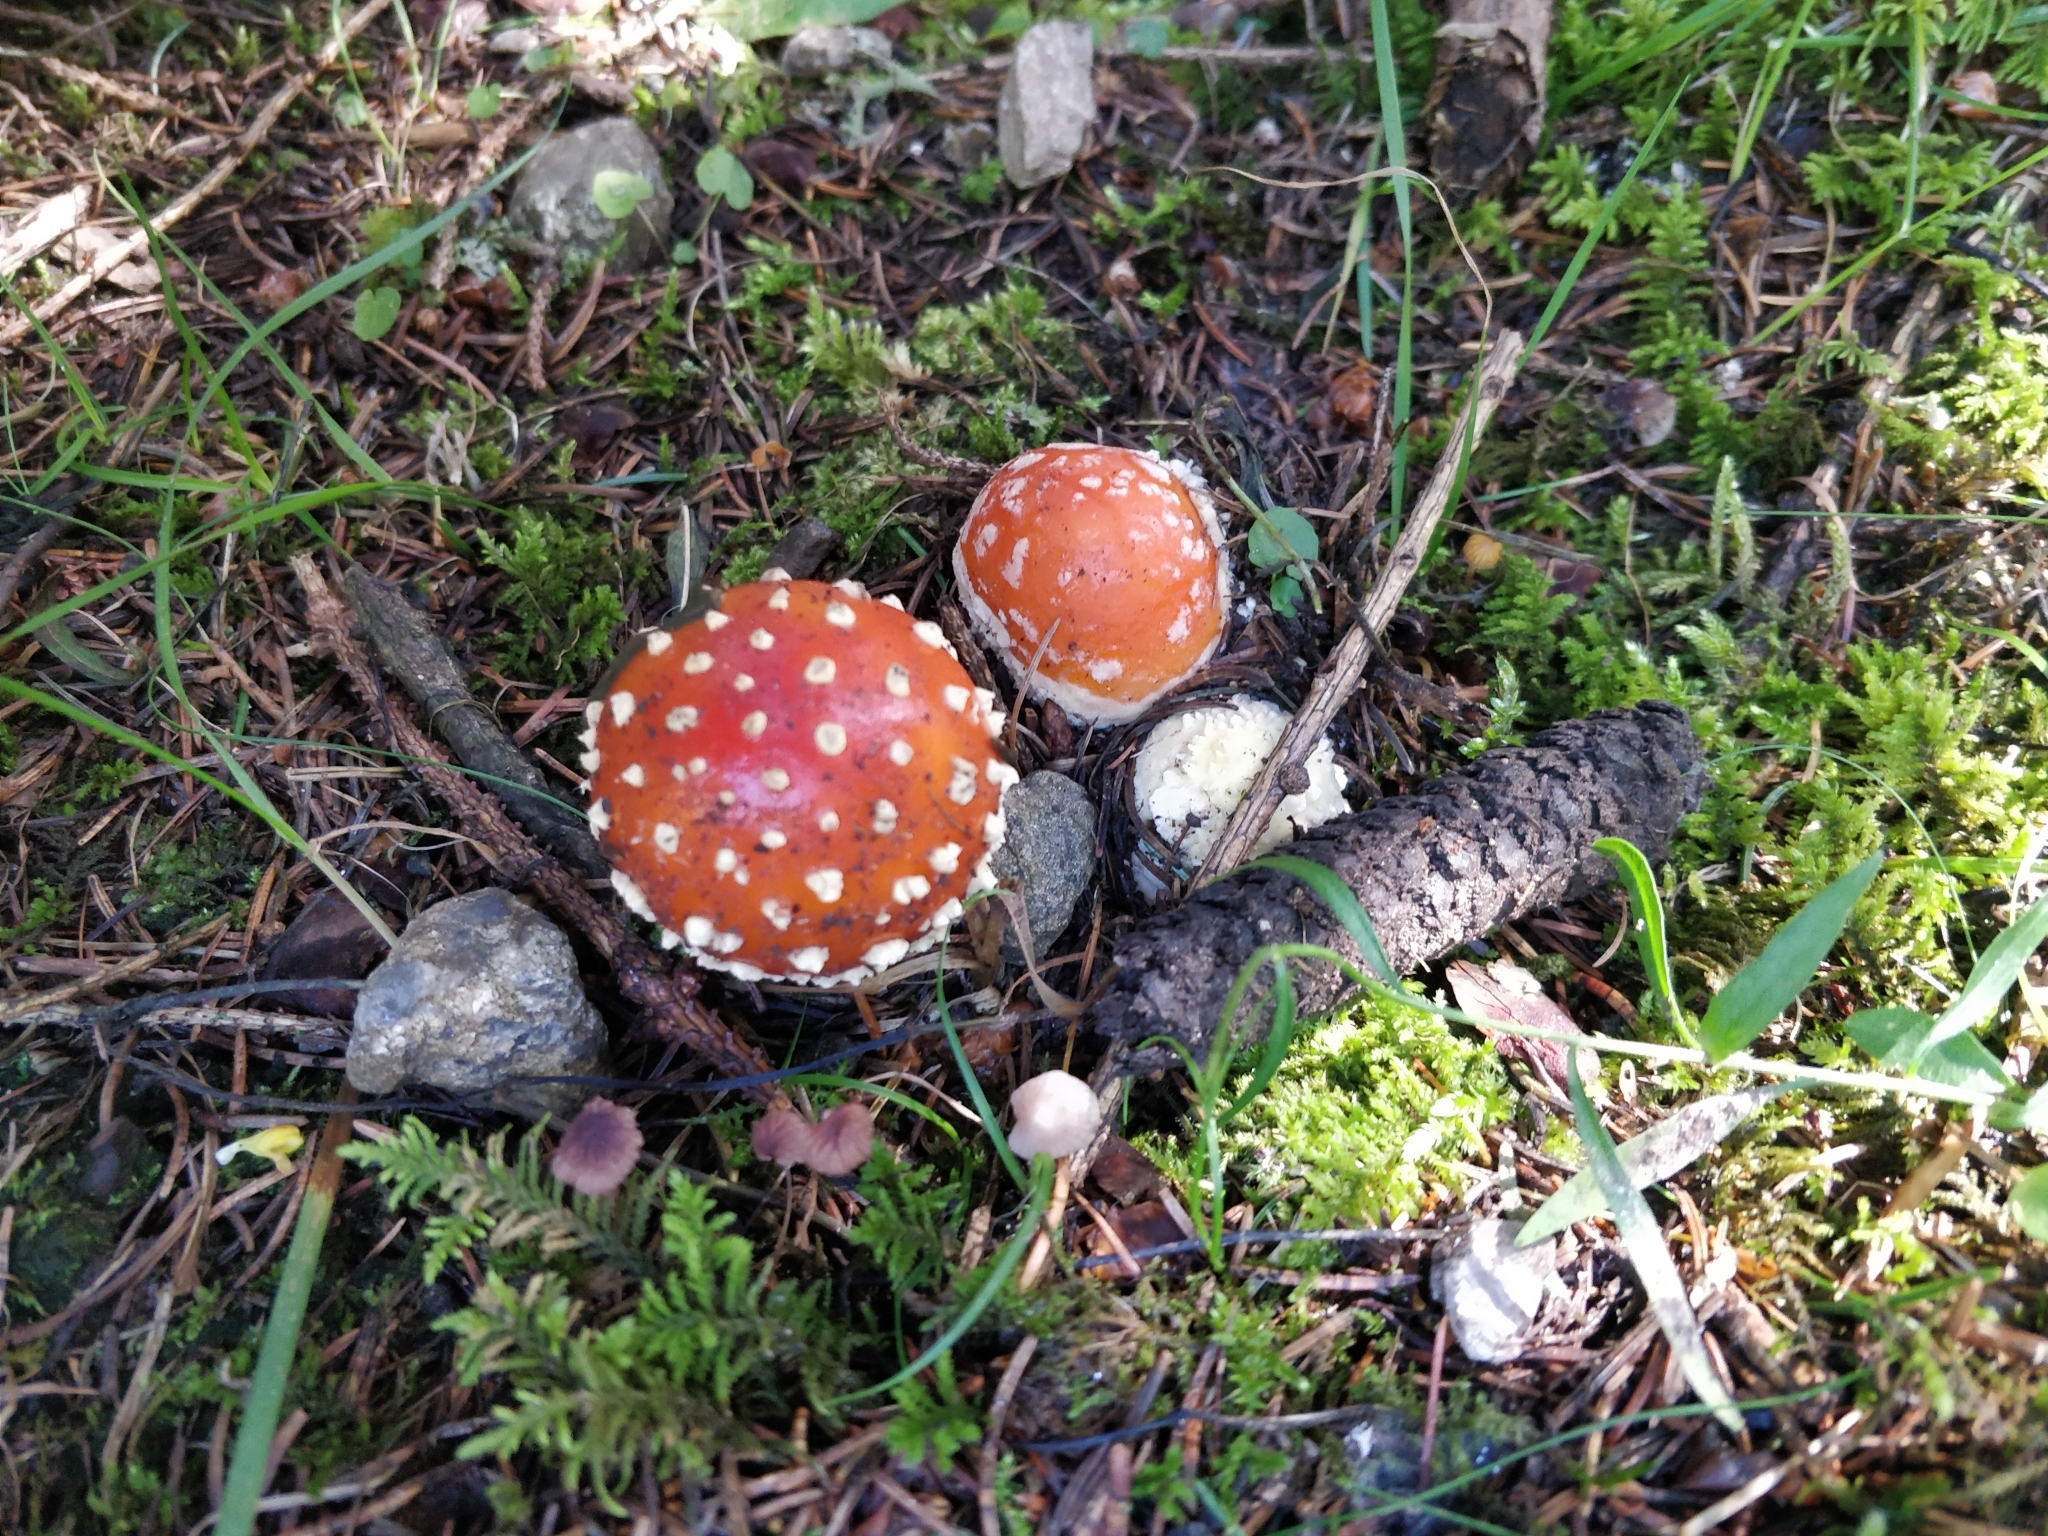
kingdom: Fungi
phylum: Basidiomycota
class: Agaricomycetes
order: Agaricales
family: Amanitaceae
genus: Amanita
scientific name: Amanita muscaria
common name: Fly agaric
